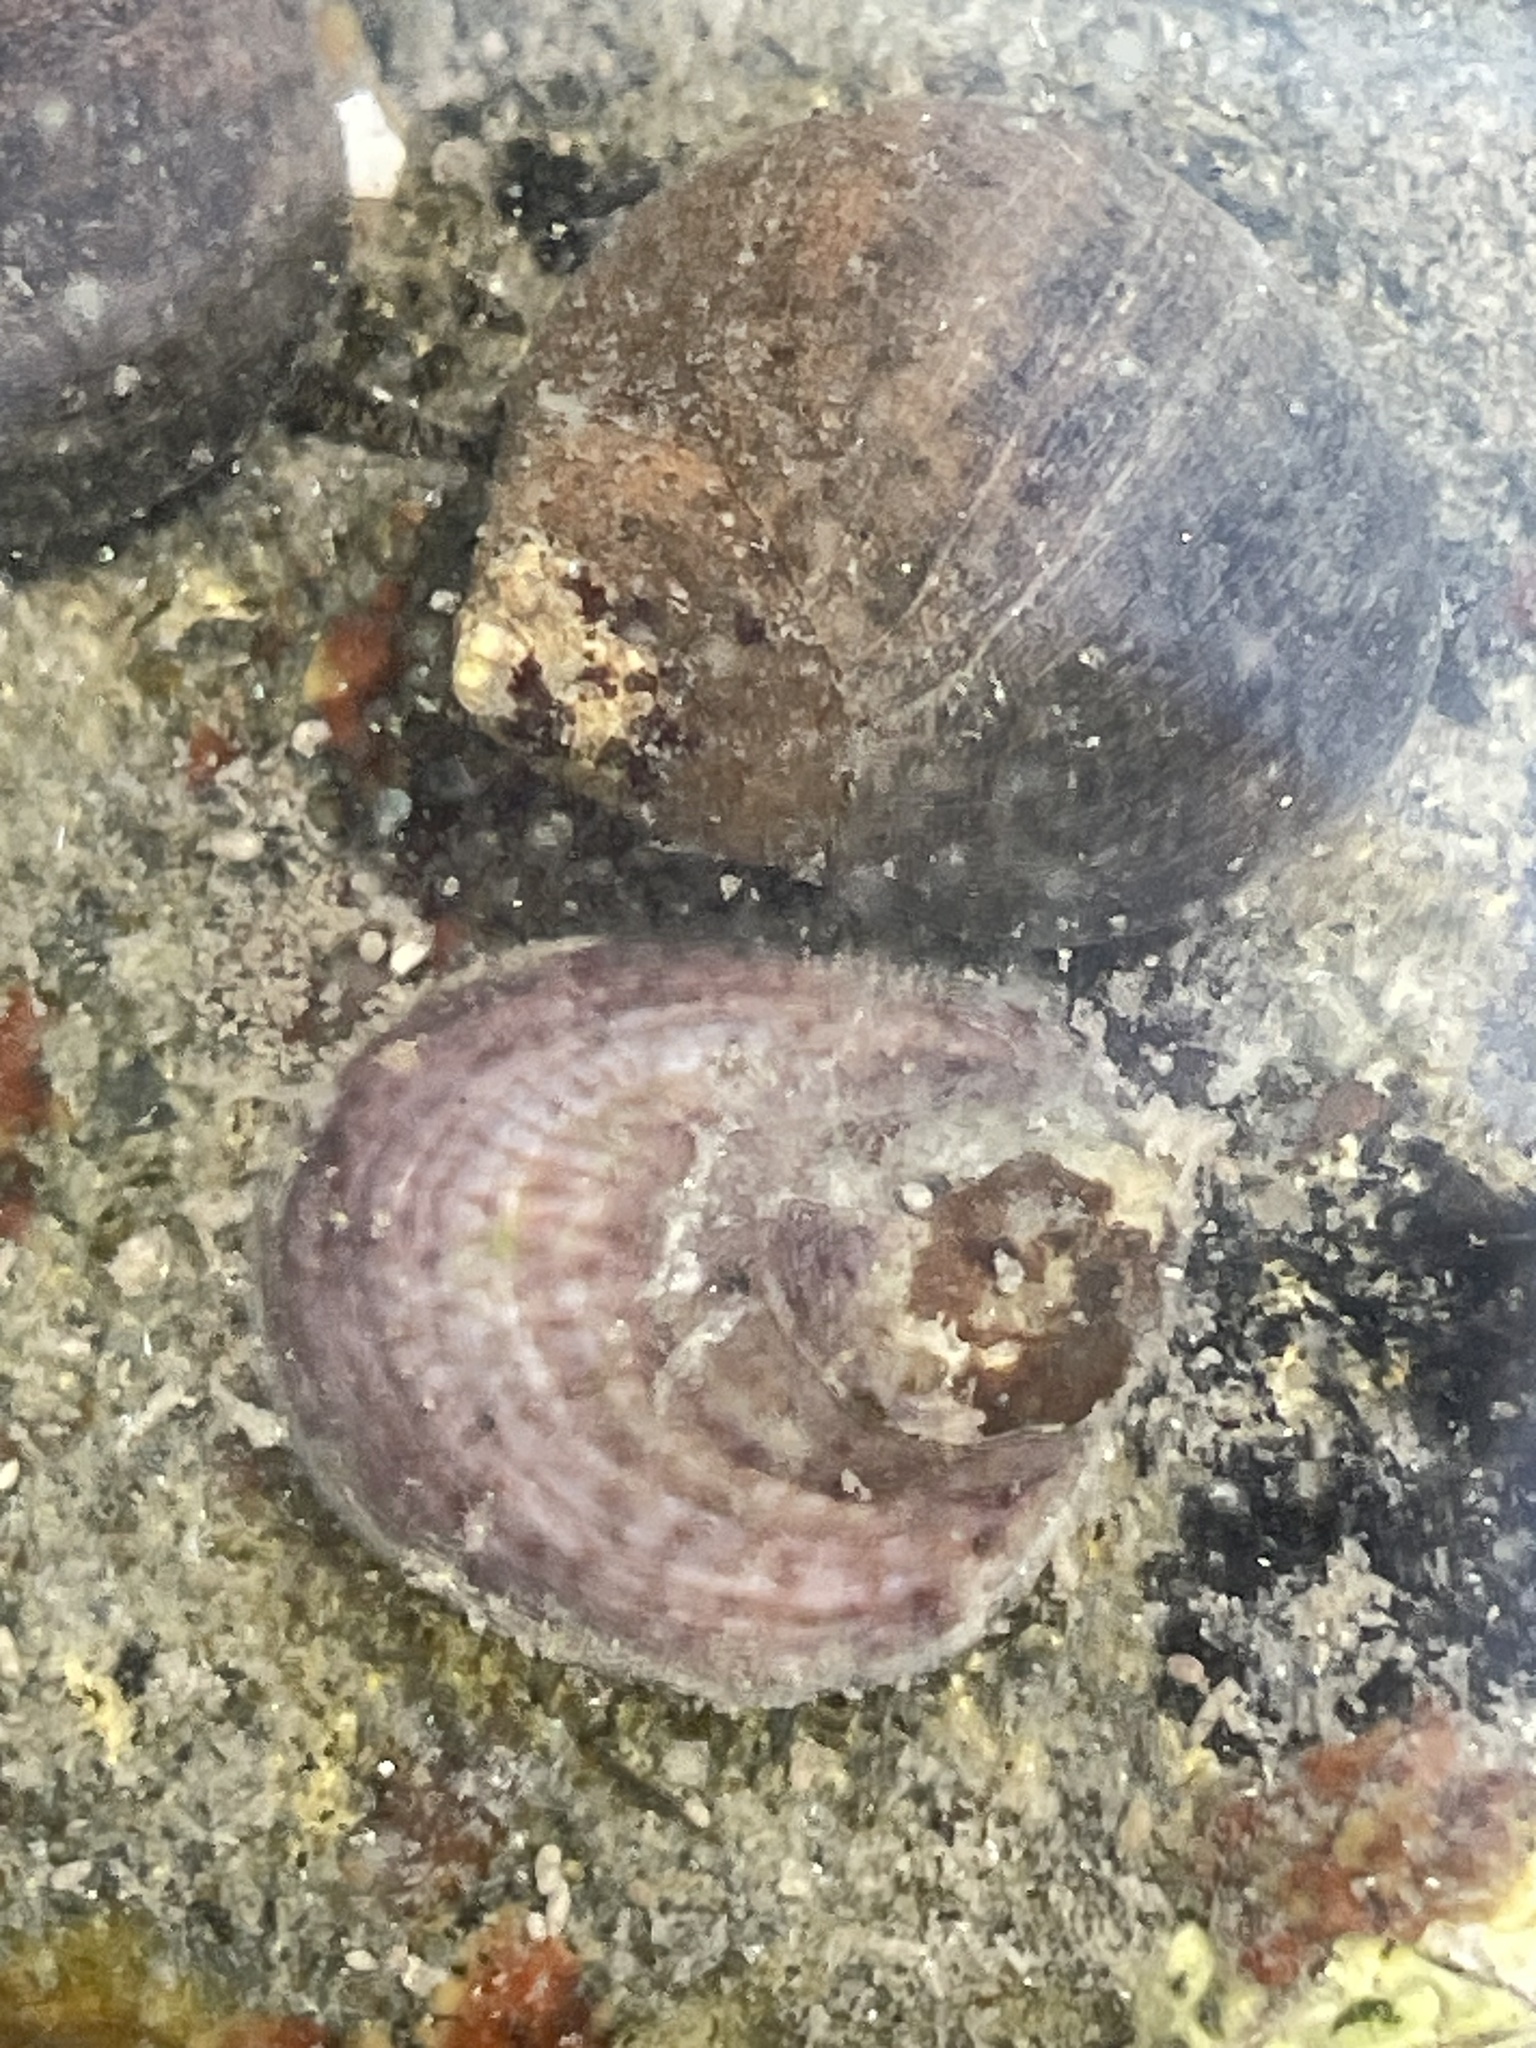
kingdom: Animalia
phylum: Mollusca
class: Gastropoda
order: Littorinimorpha
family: Calyptraeidae
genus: Crepidula
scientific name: Crepidula fornicata
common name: Slipper limpet
